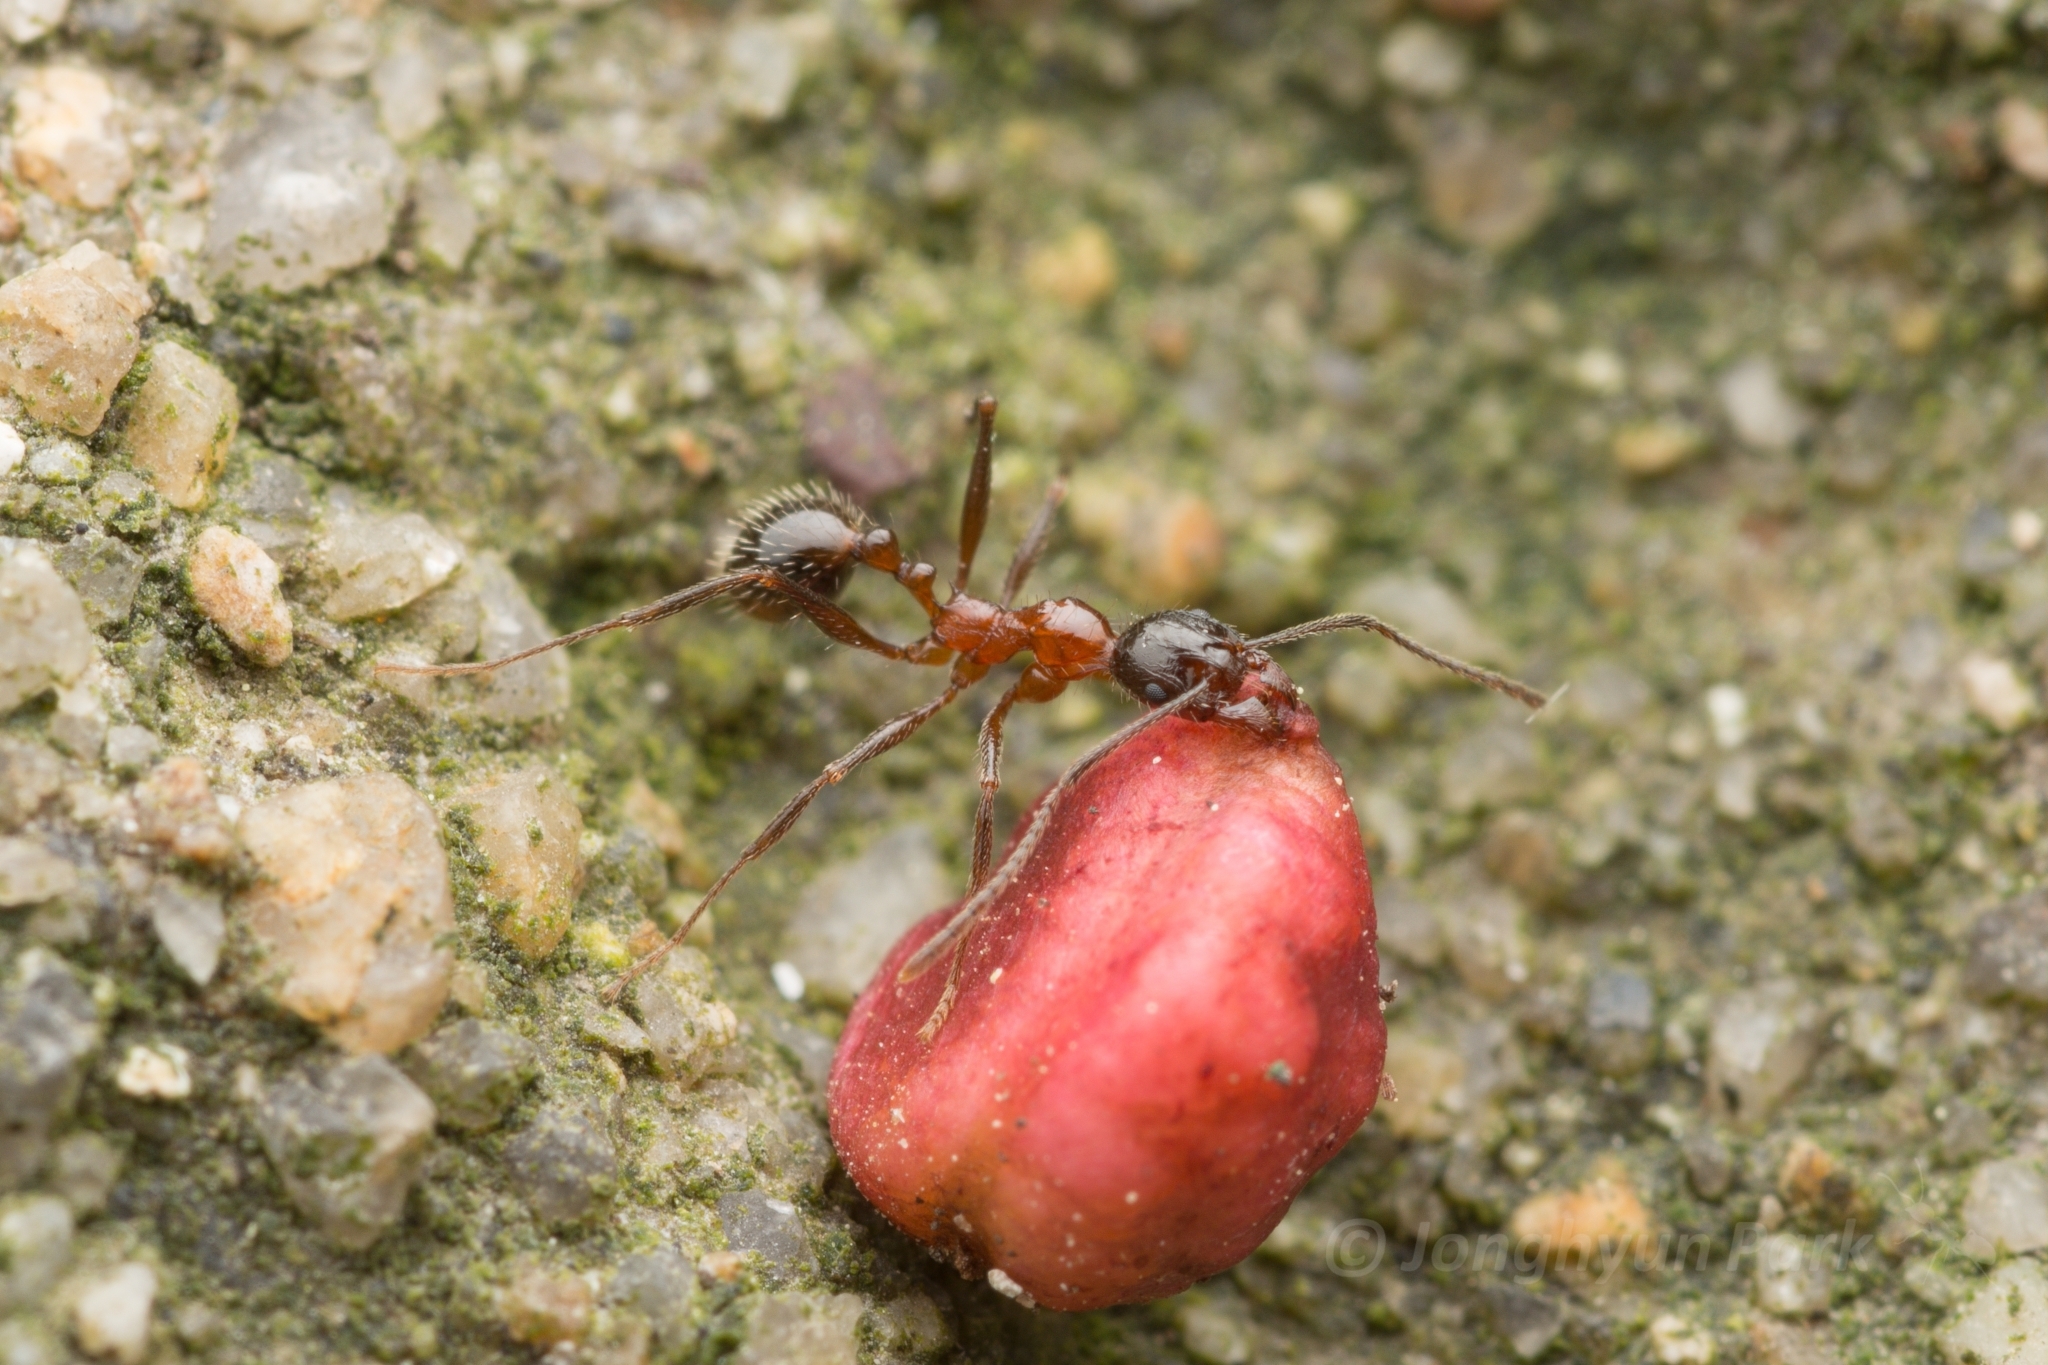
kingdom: Animalia
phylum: Arthropoda
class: Insecta
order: Hymenoptera
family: Formicidae
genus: Aphaenogaster
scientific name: Aphaenogaster lepida
